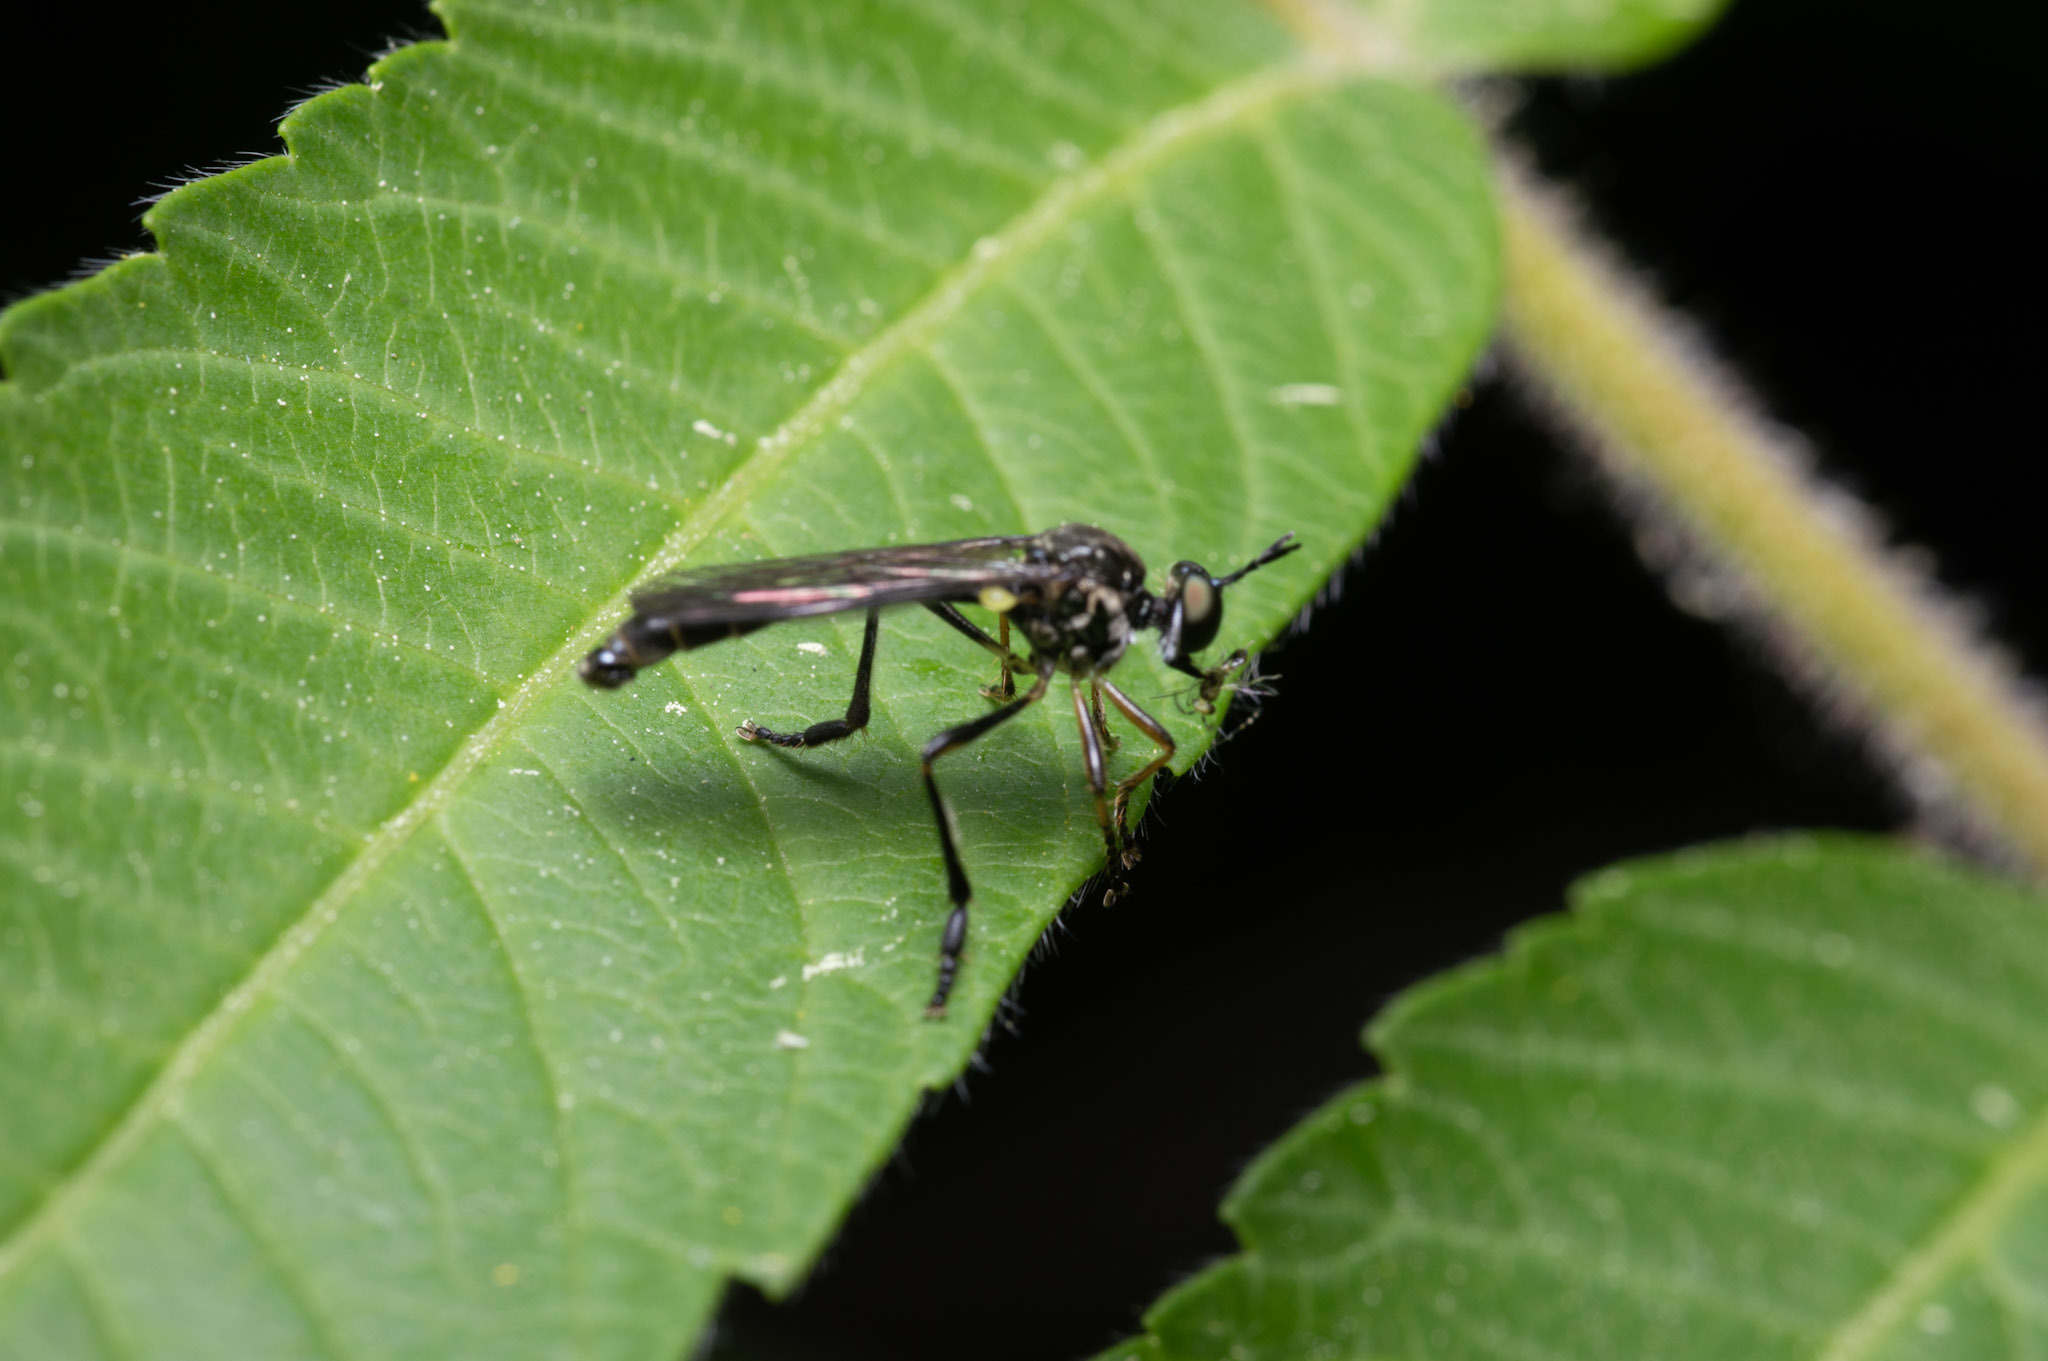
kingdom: Animalia
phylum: Arthropoda
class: Insecta
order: Diptera
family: Asilidae
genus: Dioctria
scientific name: Dioctria hyalipennis
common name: Stripe-legged robberfly
